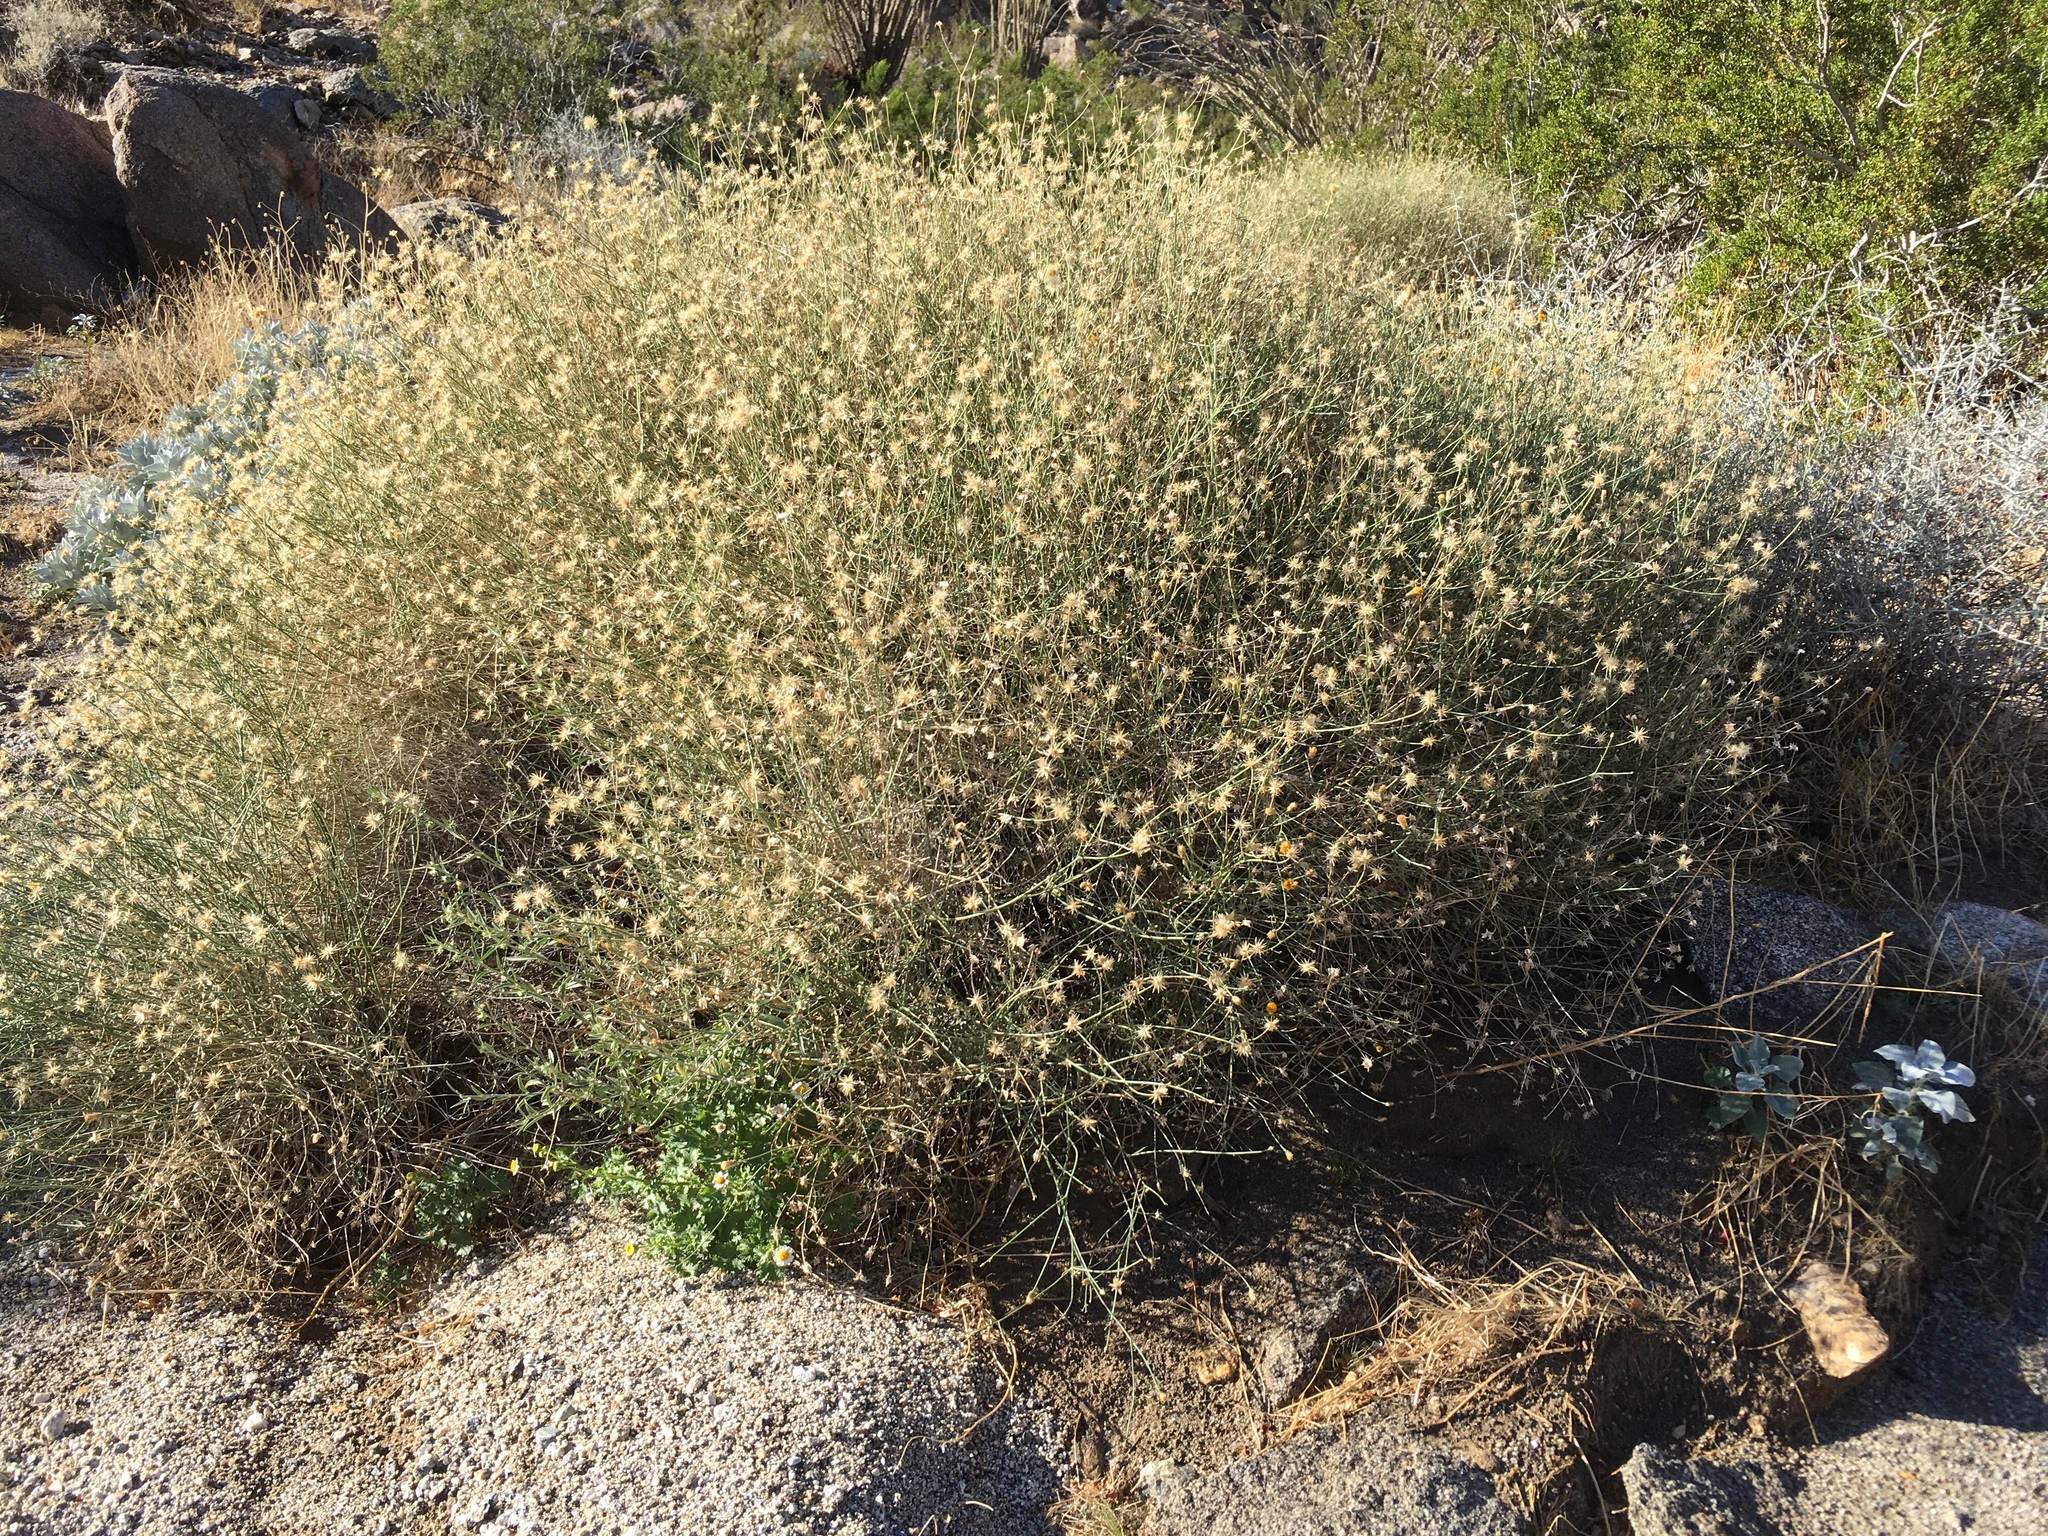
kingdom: Plantae
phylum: Tracheophyta
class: Magnoliopsida
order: Asterales
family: Asteraceae
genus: Bebbia
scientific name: Bebbia juncea
